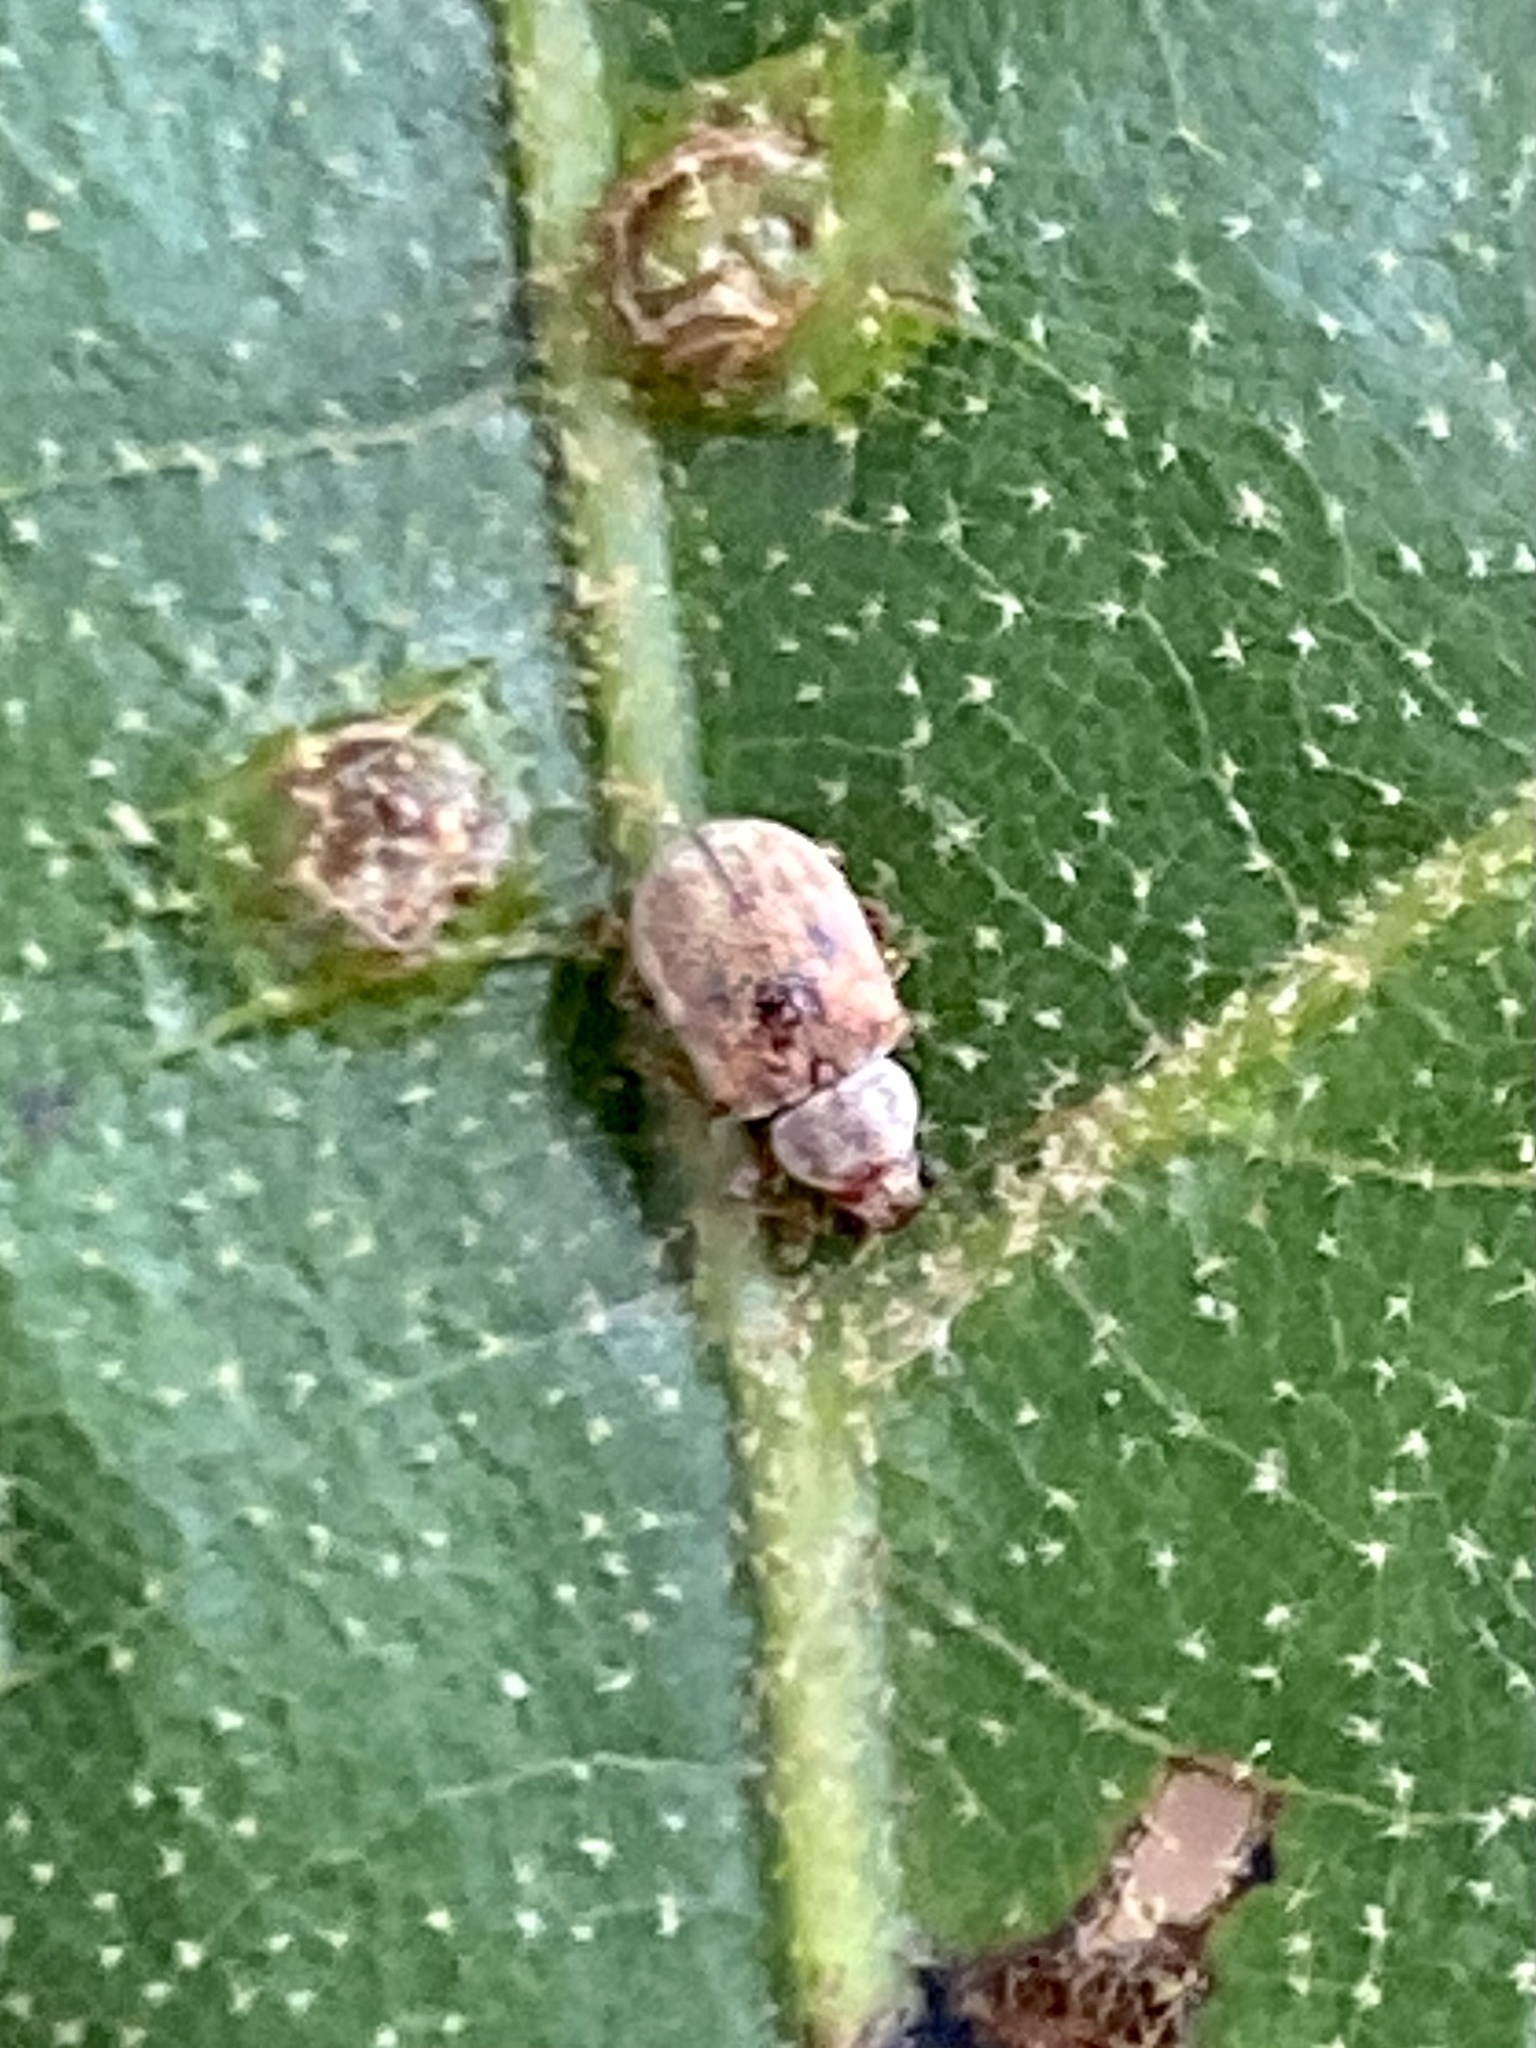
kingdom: Animalia
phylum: Arthropoda
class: Insecta
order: Coleoptera
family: Chrysomelidae
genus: Demotina
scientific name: Demotina modesta
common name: Leaf beetle
